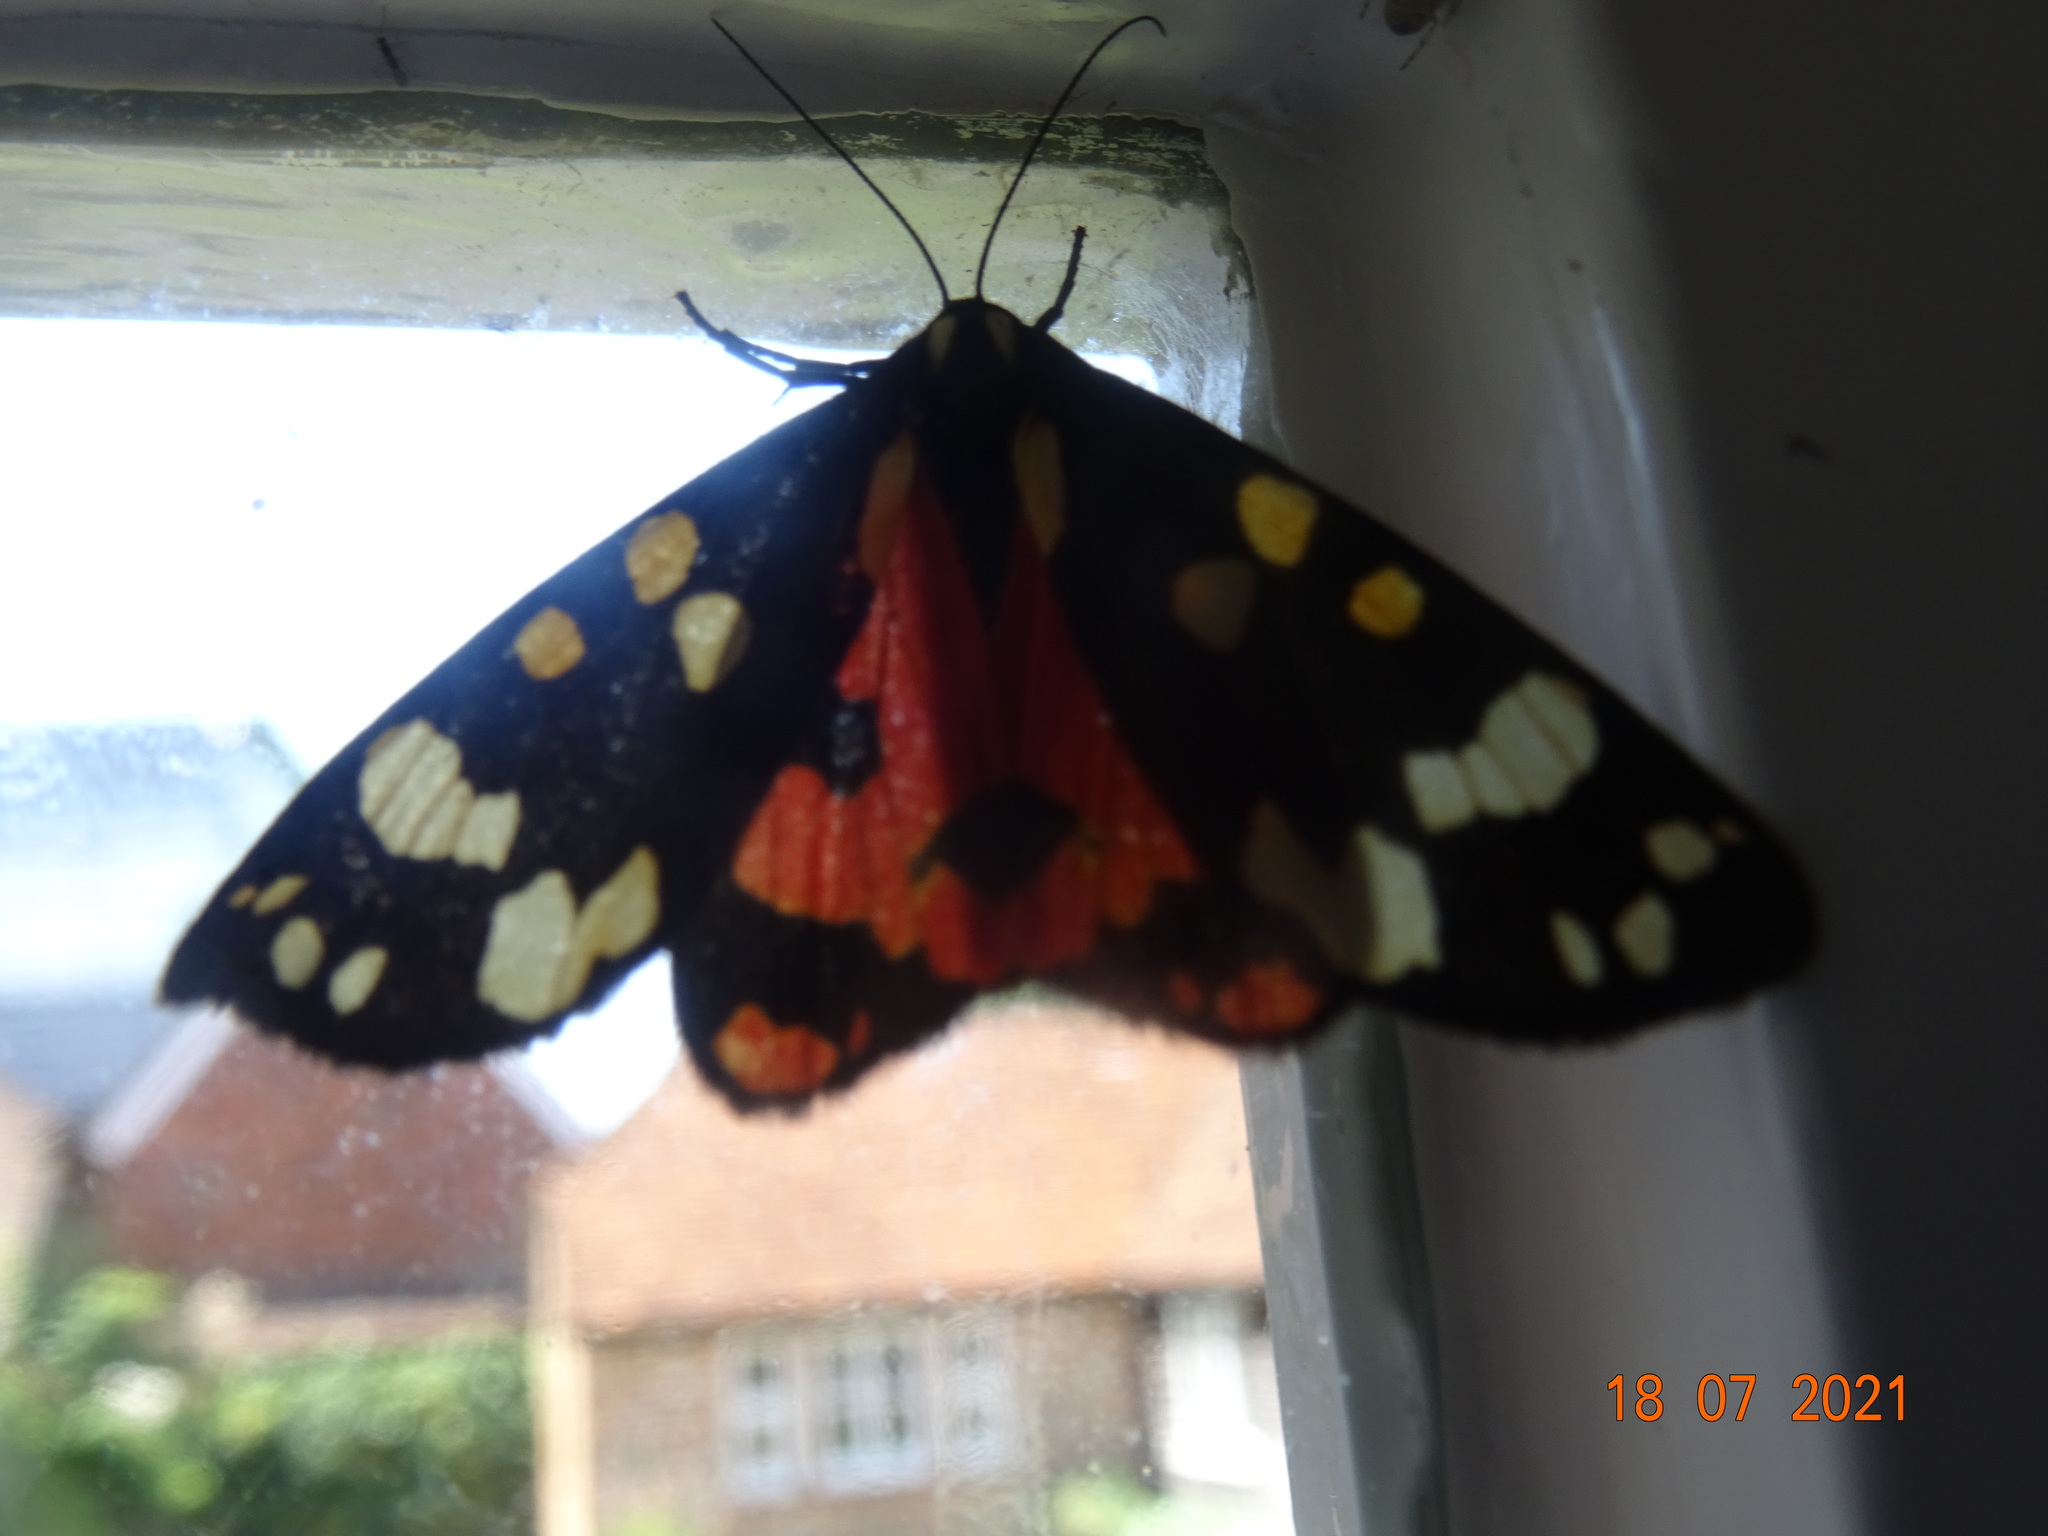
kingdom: Animalia
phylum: Arthropoda
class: Insecta
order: Lepidoptera
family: Erebidae
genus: Callimorpha
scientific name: Callimorpha dominula
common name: Scarlet tiger
